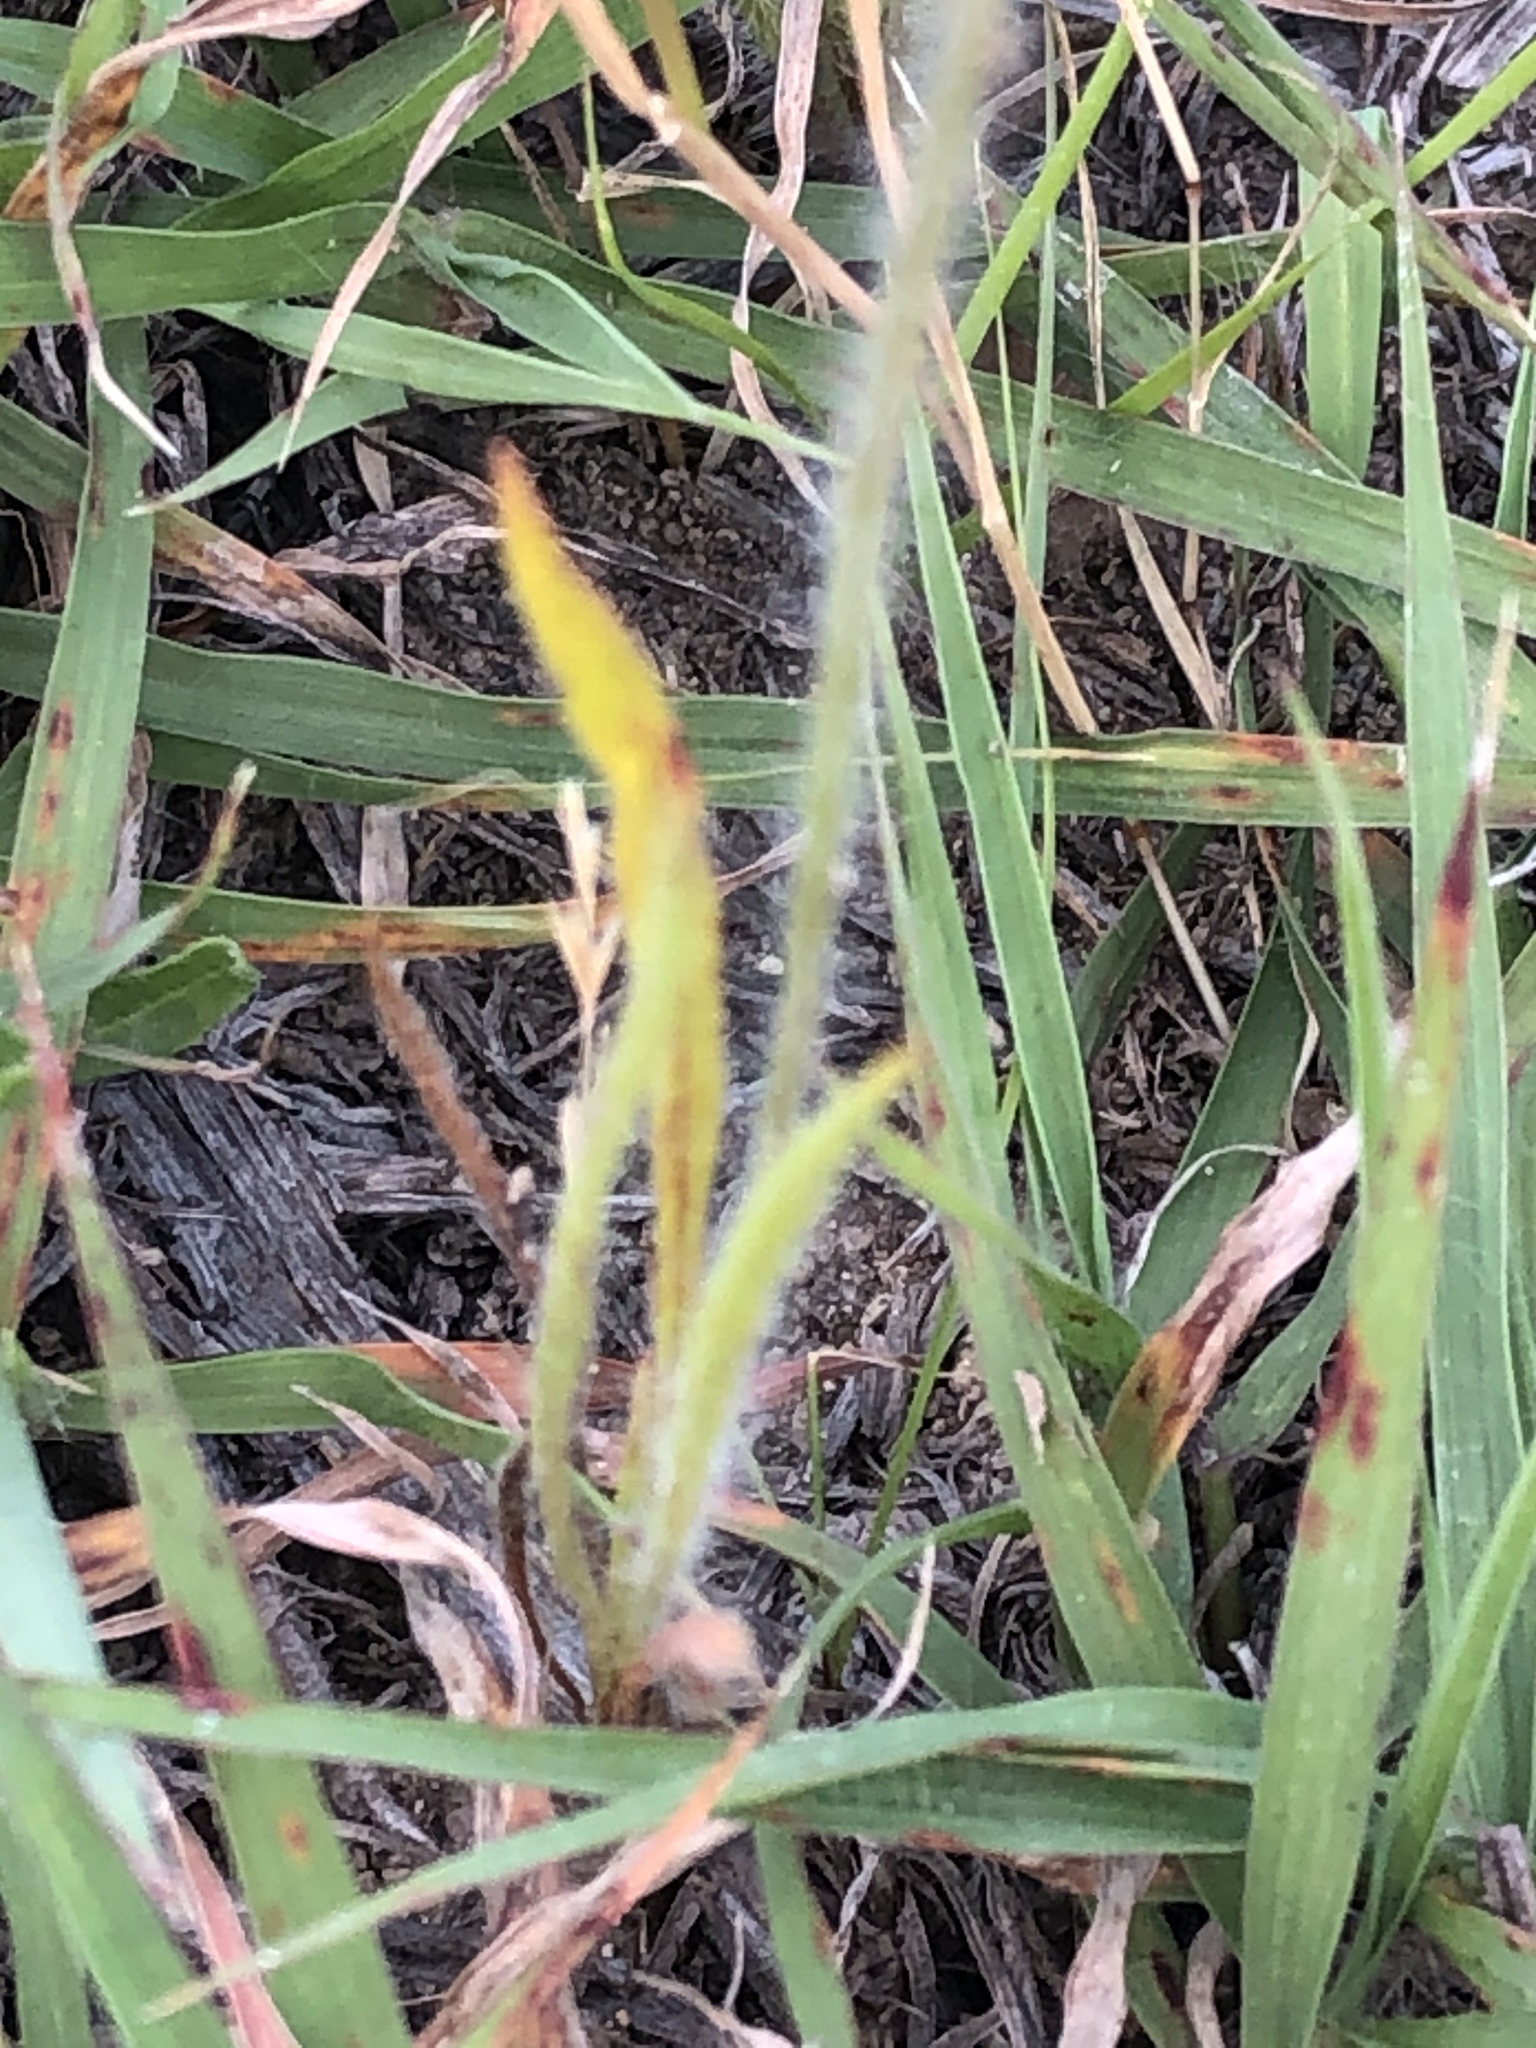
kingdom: Plantae
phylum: Tracheophyta
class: Magnoliopsida
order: Lamiales
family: Plantaginaceae
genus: Plantago
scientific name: Plantago helleri
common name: Heller's plantain
